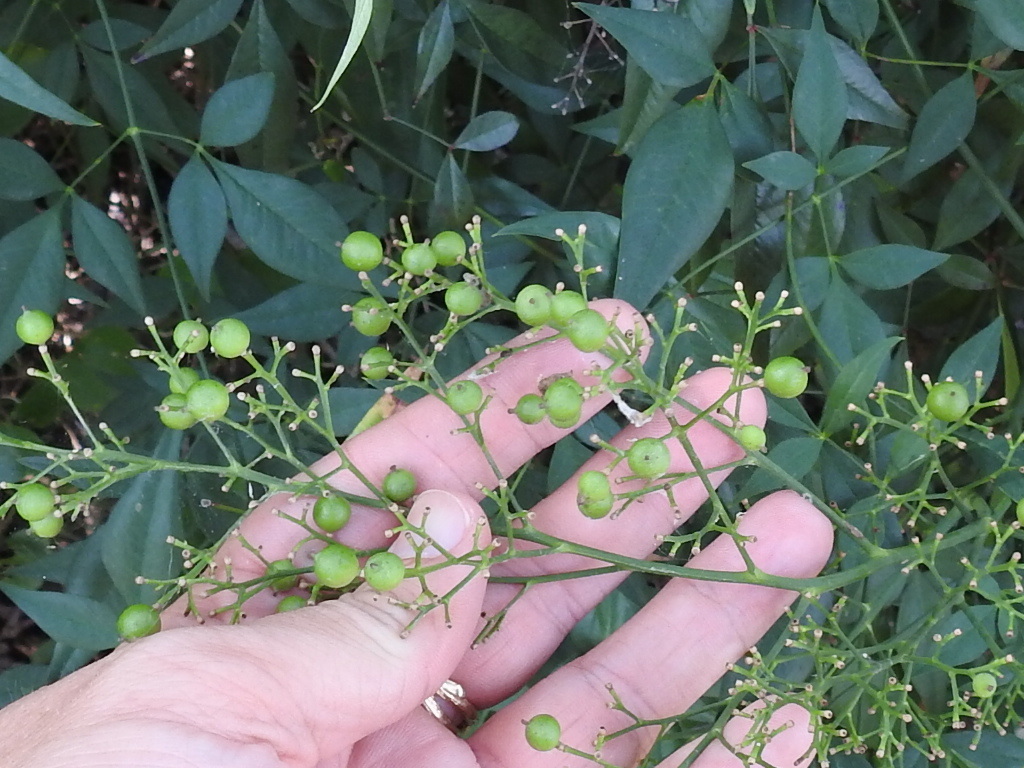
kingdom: Plantae
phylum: Tracheophyta
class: Magnoliopsida
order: Ranunculales
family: Berberidaceae
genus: Nandina
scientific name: Nandina domestica
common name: Sacred bamboo
